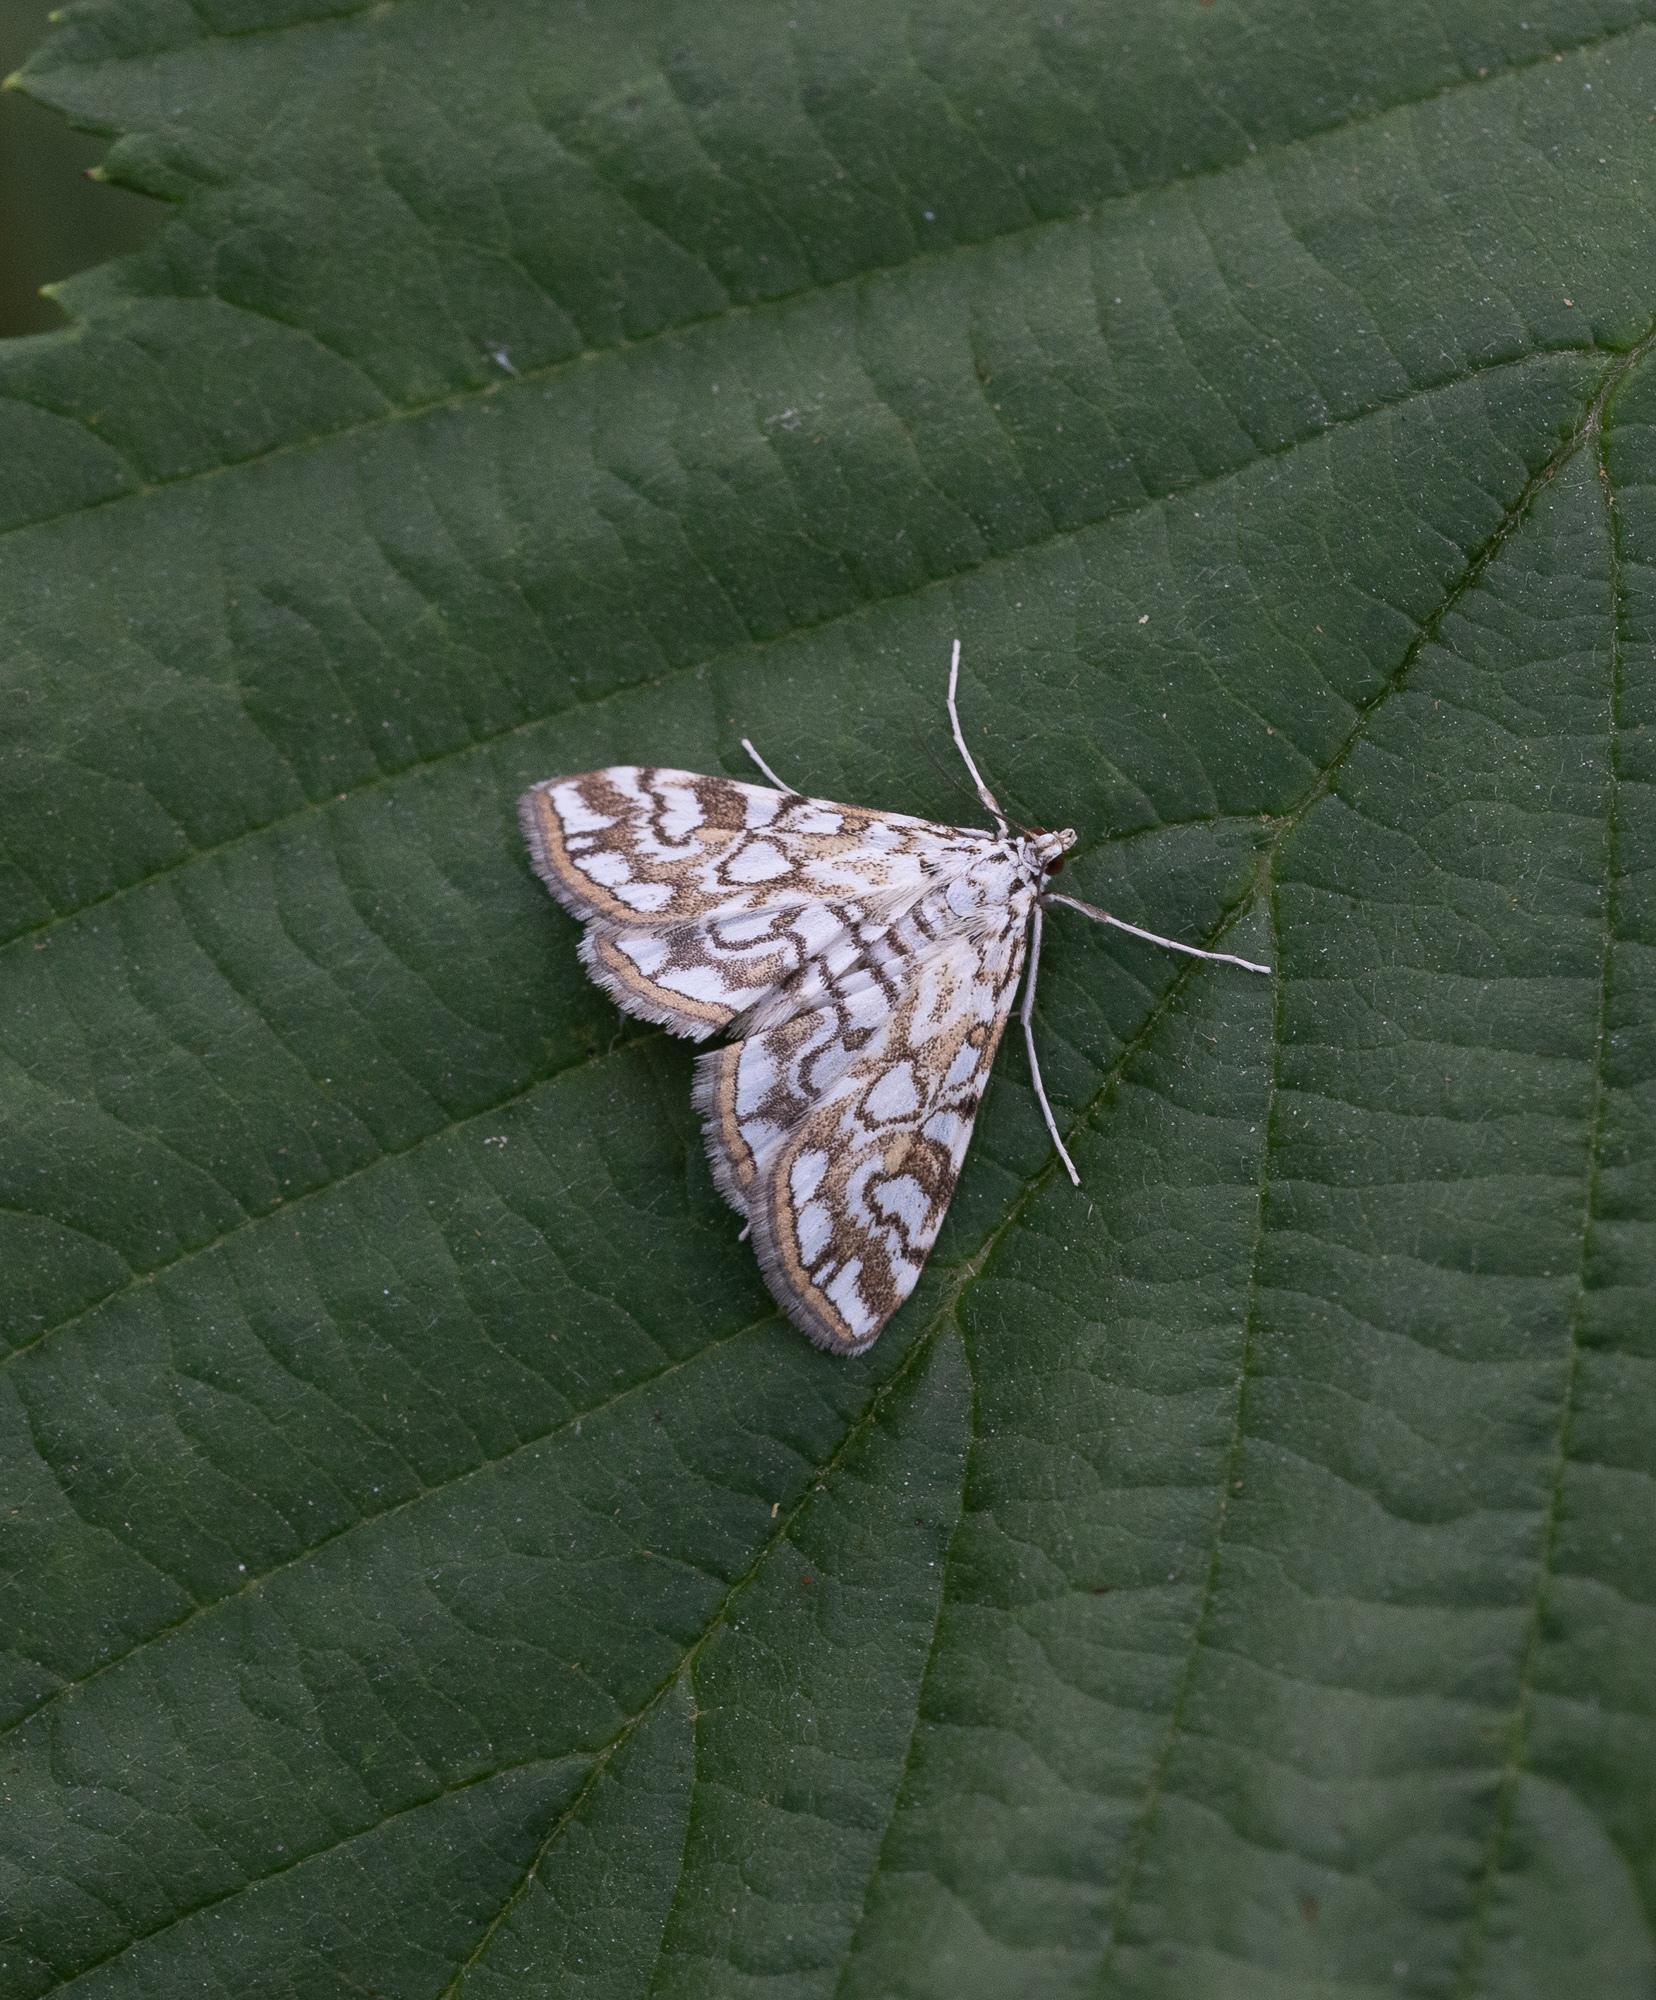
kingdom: Animalia
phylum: Arthropoda
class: Insecta
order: Lepidoptera
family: Crambidae
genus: Elophila
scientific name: Elophila nymphaeata
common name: Brown china-mark
